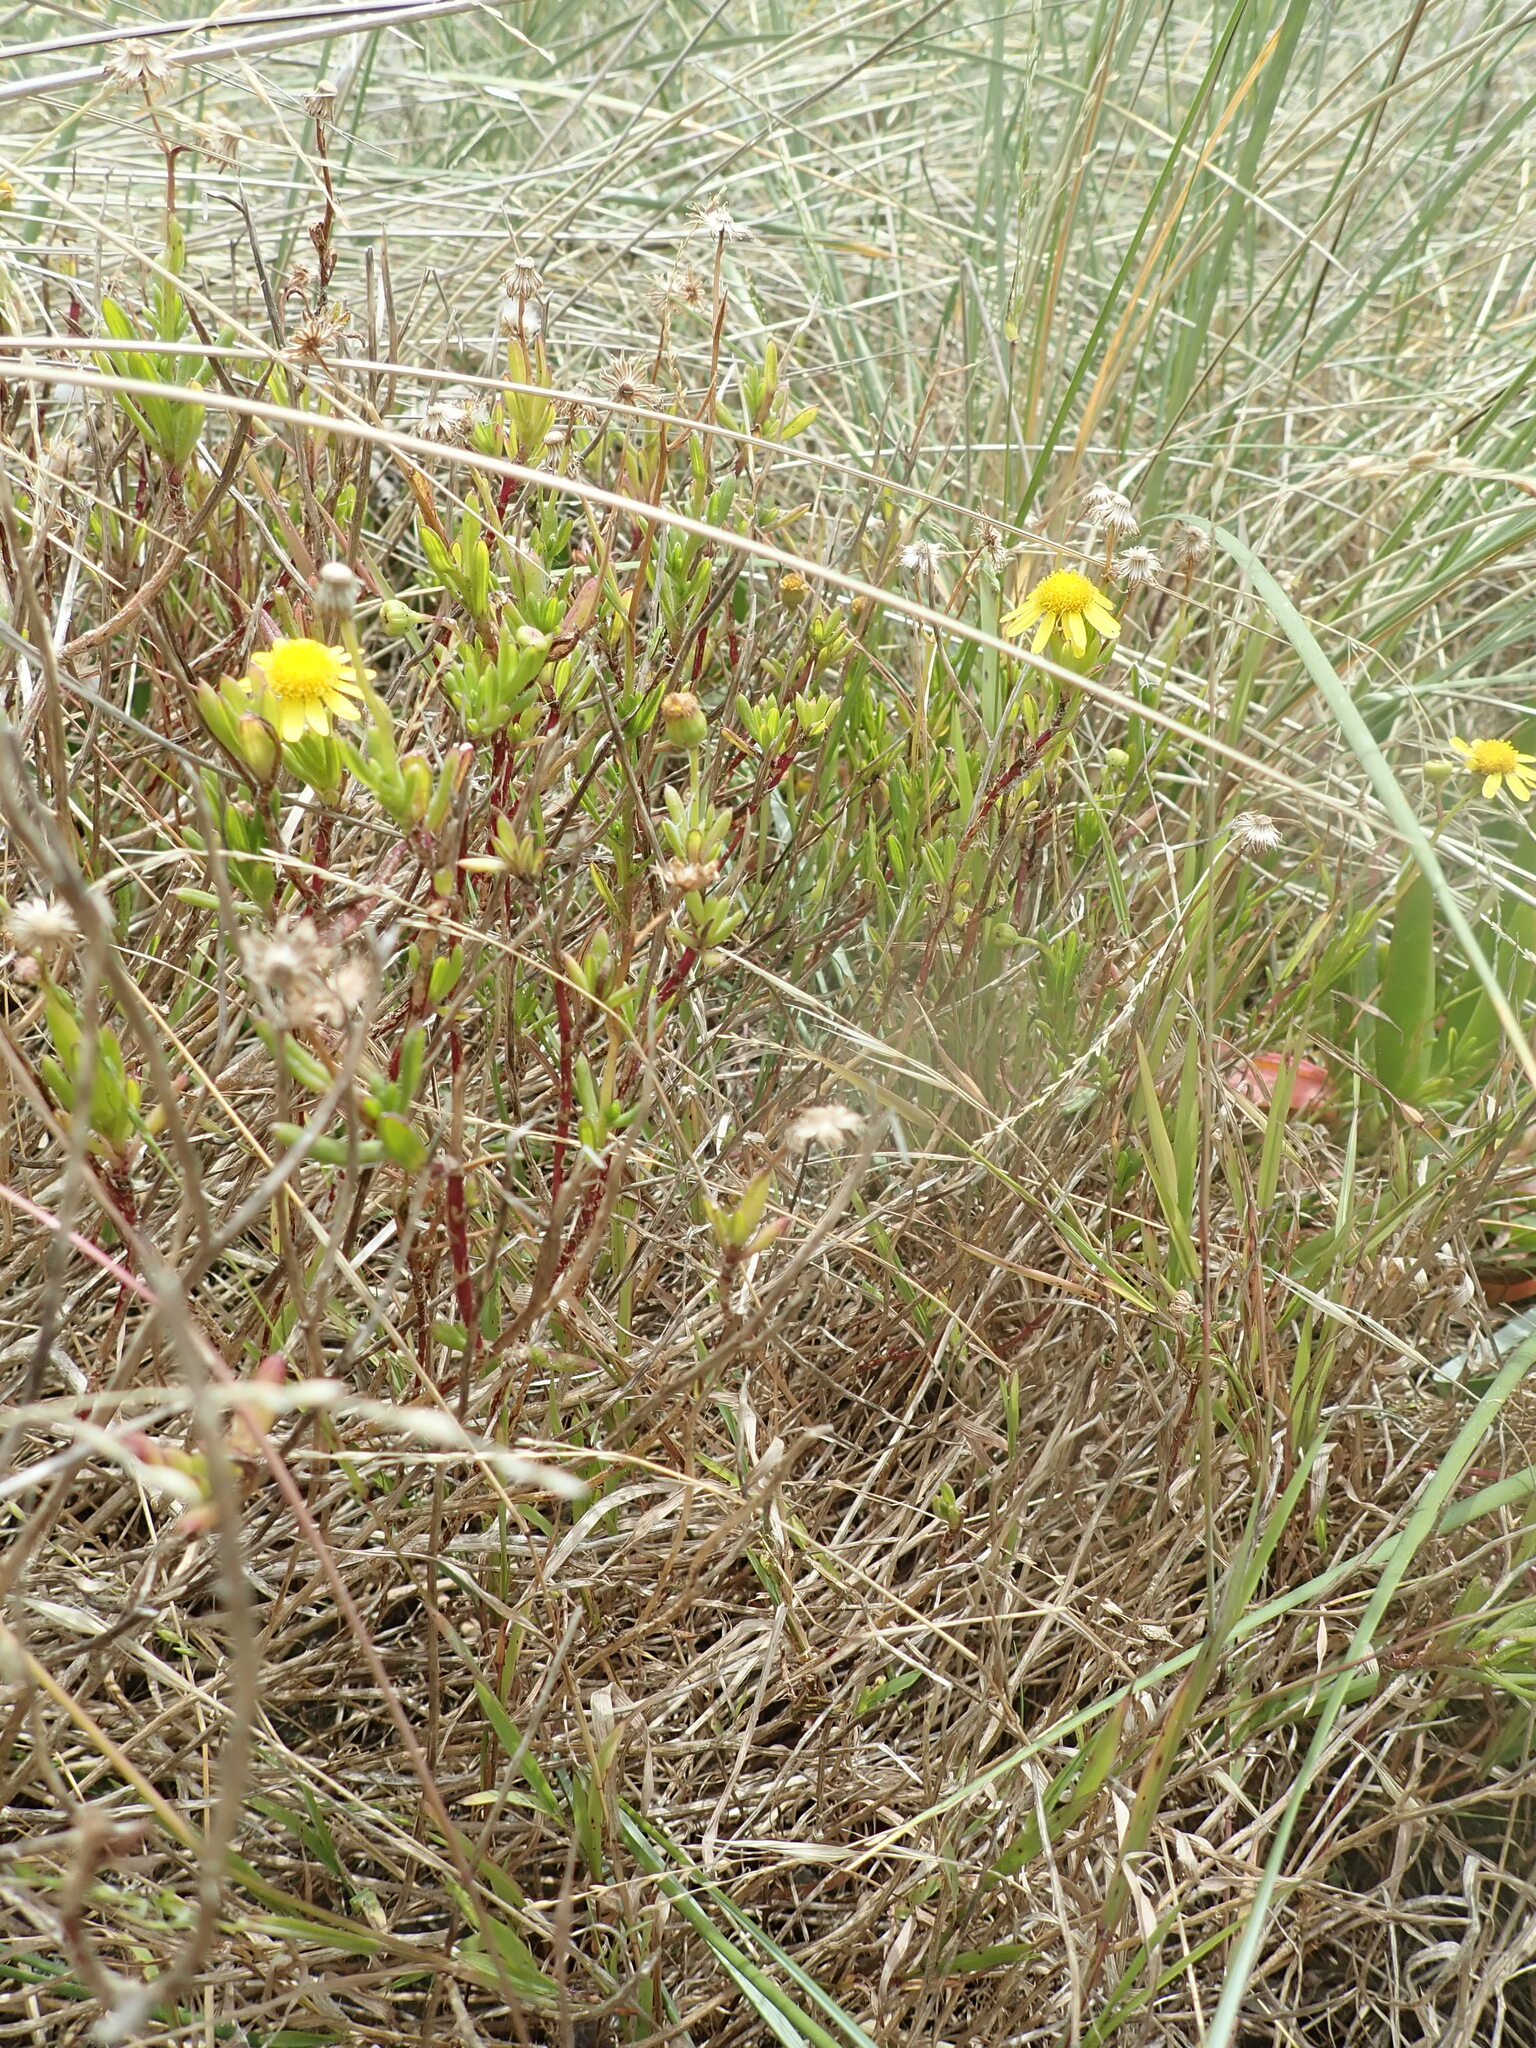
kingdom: Plantae
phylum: Tracheophyta
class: Magnoliopsida
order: Asterales
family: Asteraceae
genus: Senecio
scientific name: Senecio skirrhodon
